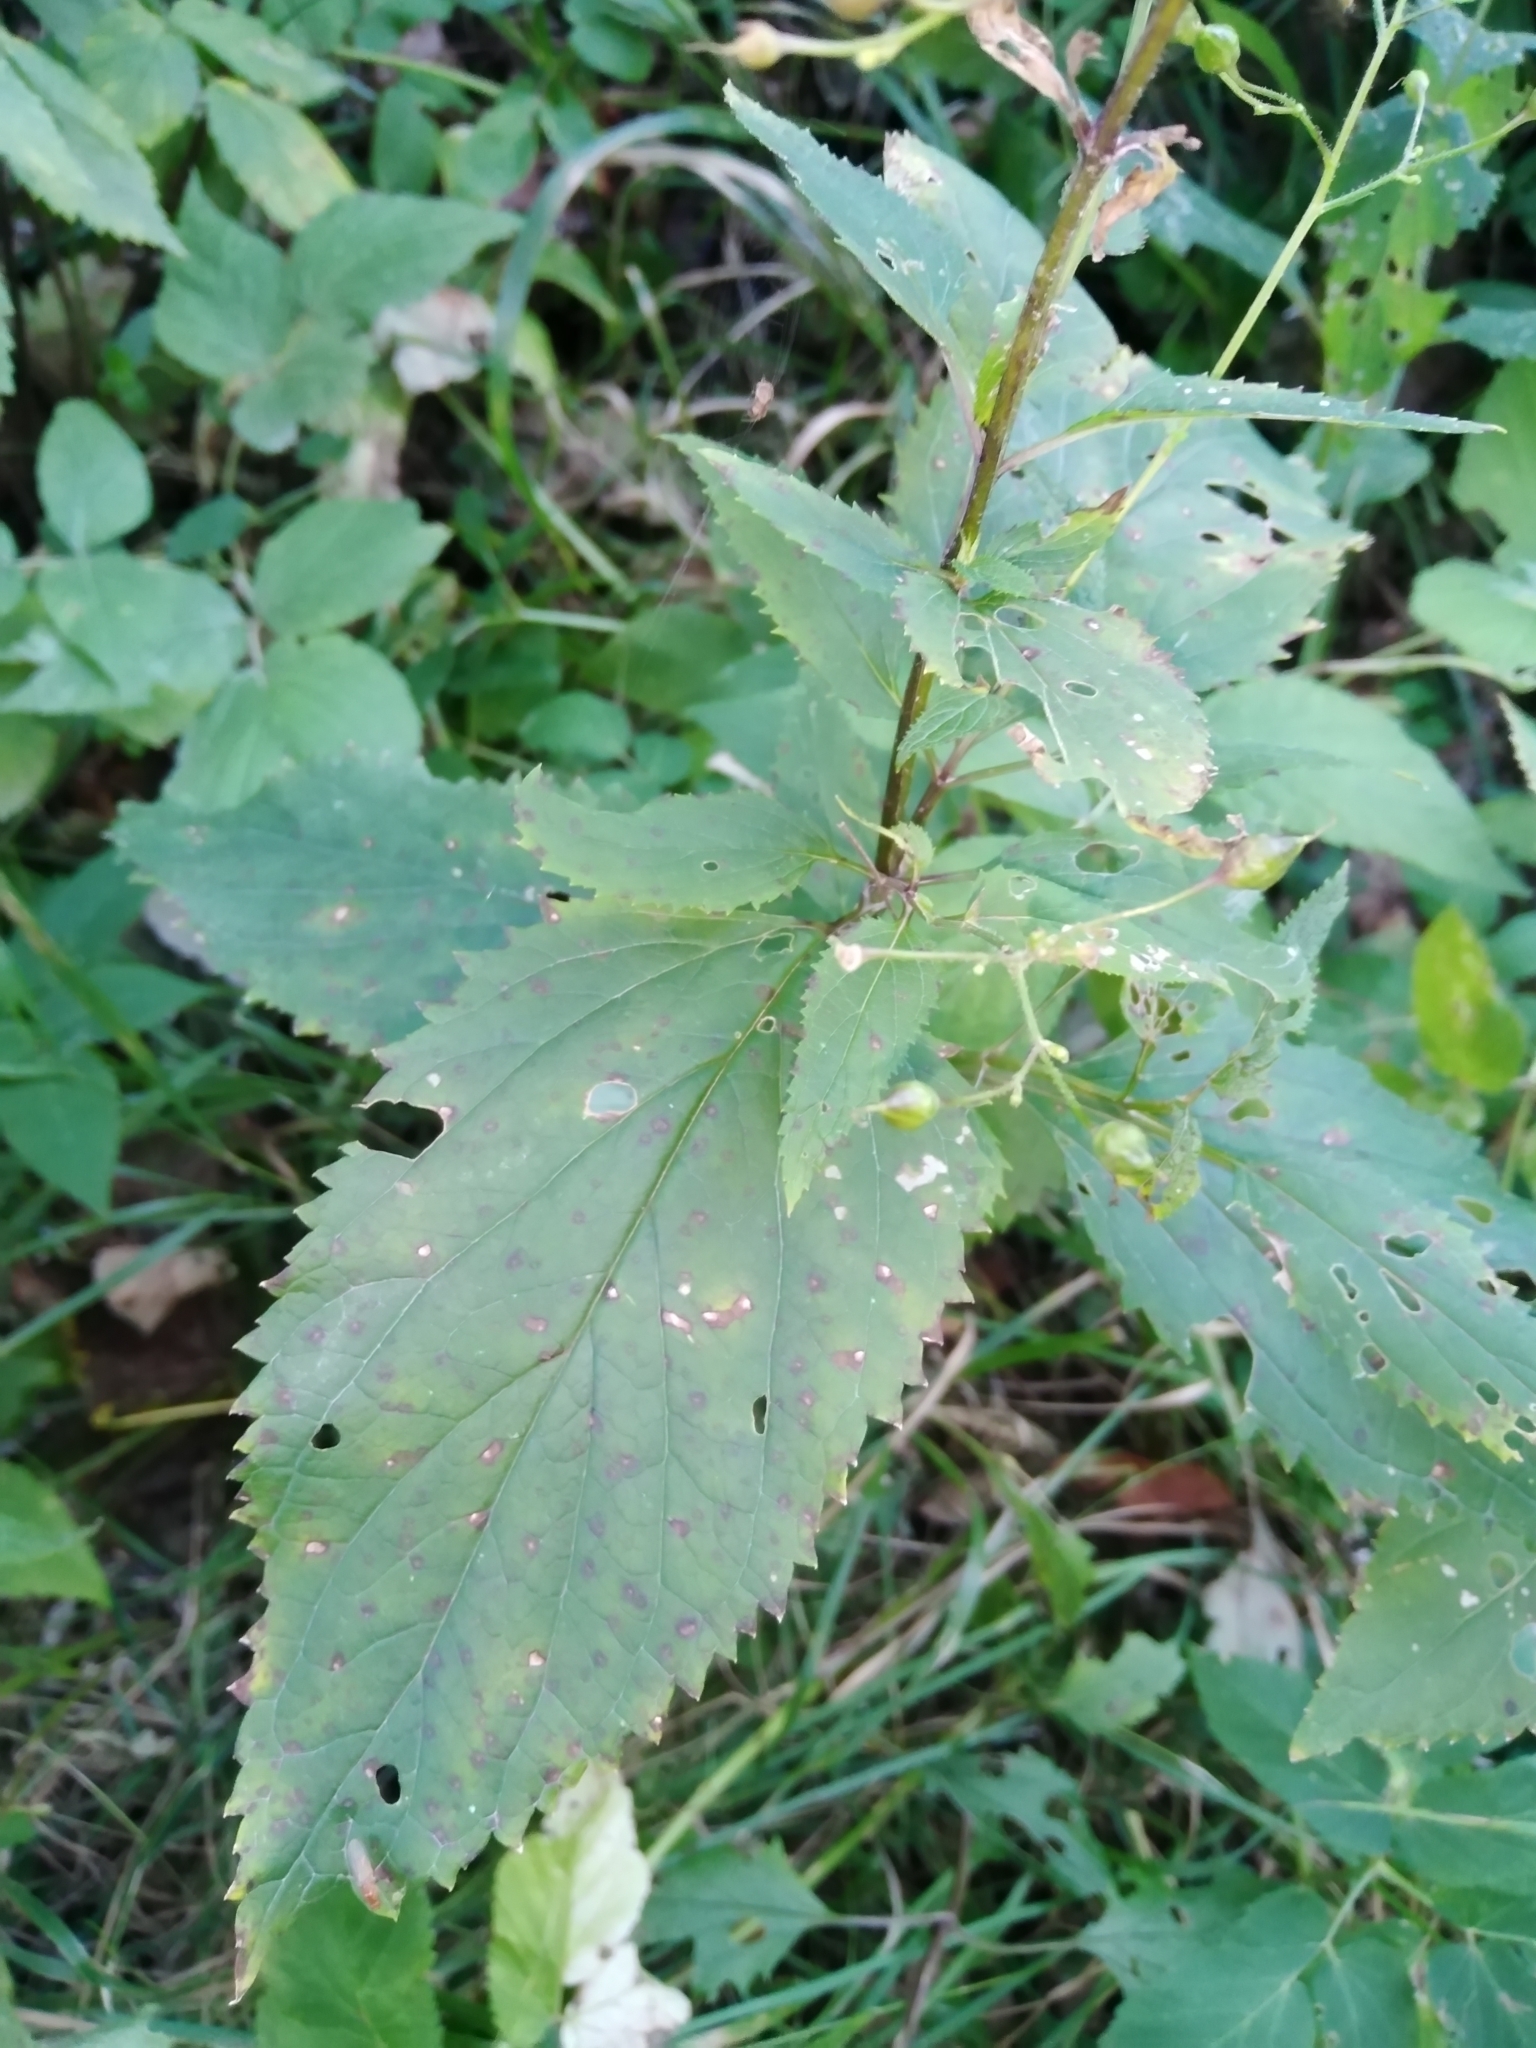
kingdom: Plantae
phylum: Tracheophyta
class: Magnoliopsida
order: Lamiales
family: Scrophulariaceae
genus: Scrophularia
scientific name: Scrophularia nodosa
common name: Common figwort
